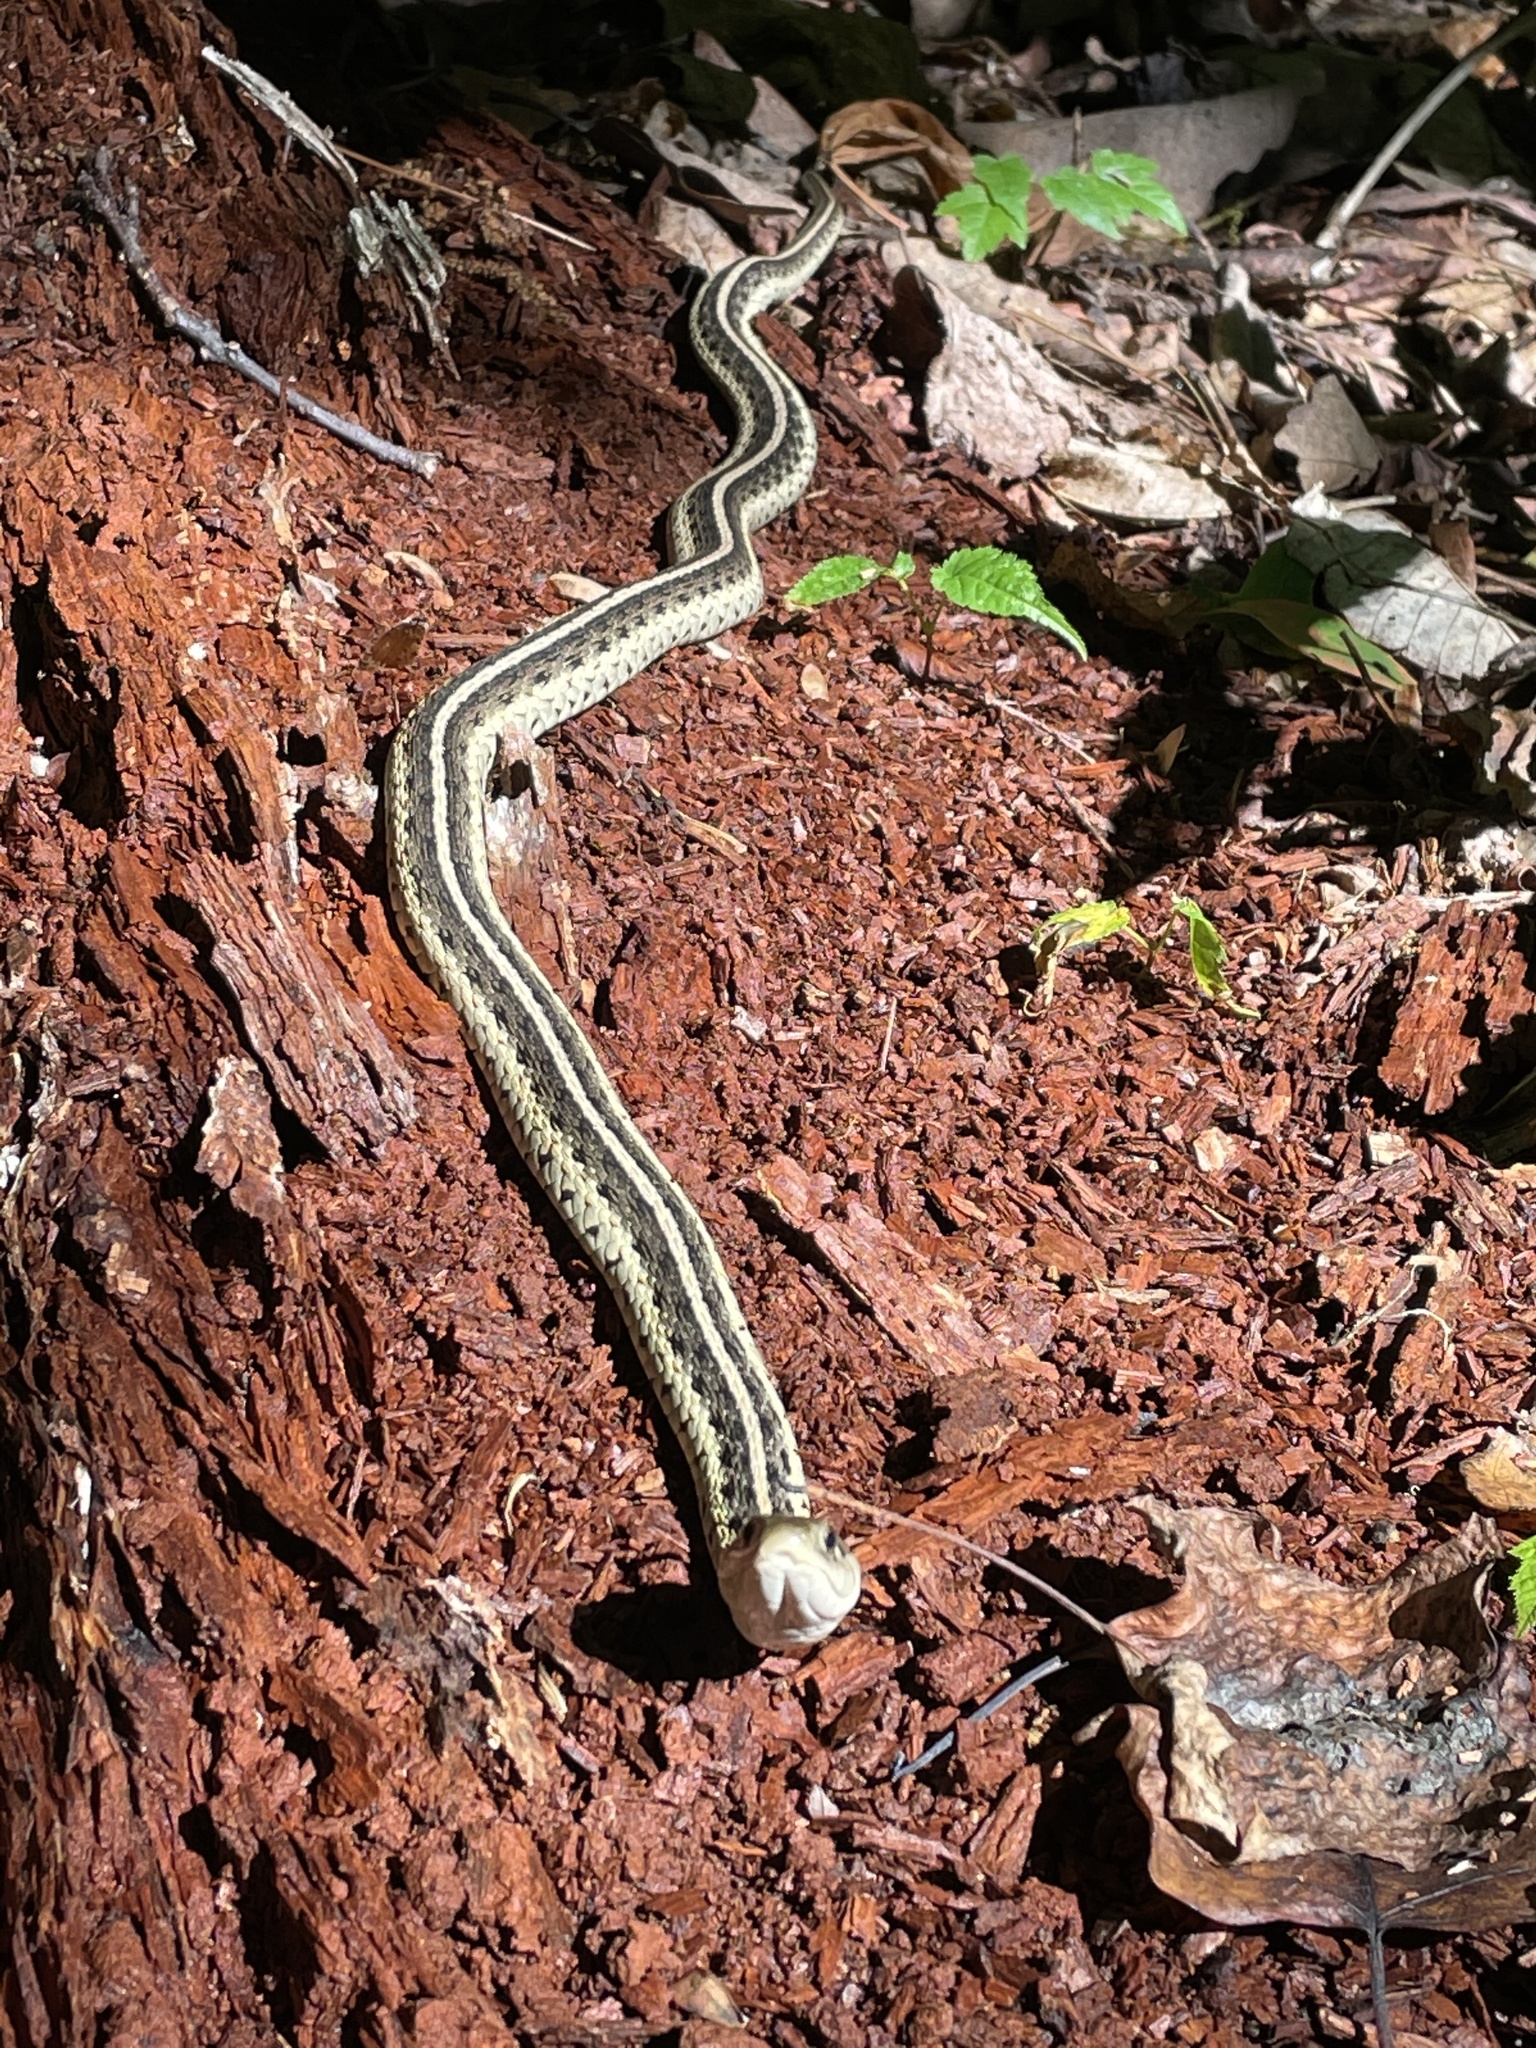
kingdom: Animalia
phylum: Chordata
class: Squamata
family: Colubridae
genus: Thamnophis
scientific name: Thamnophis sirtalis
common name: Common garter snake
